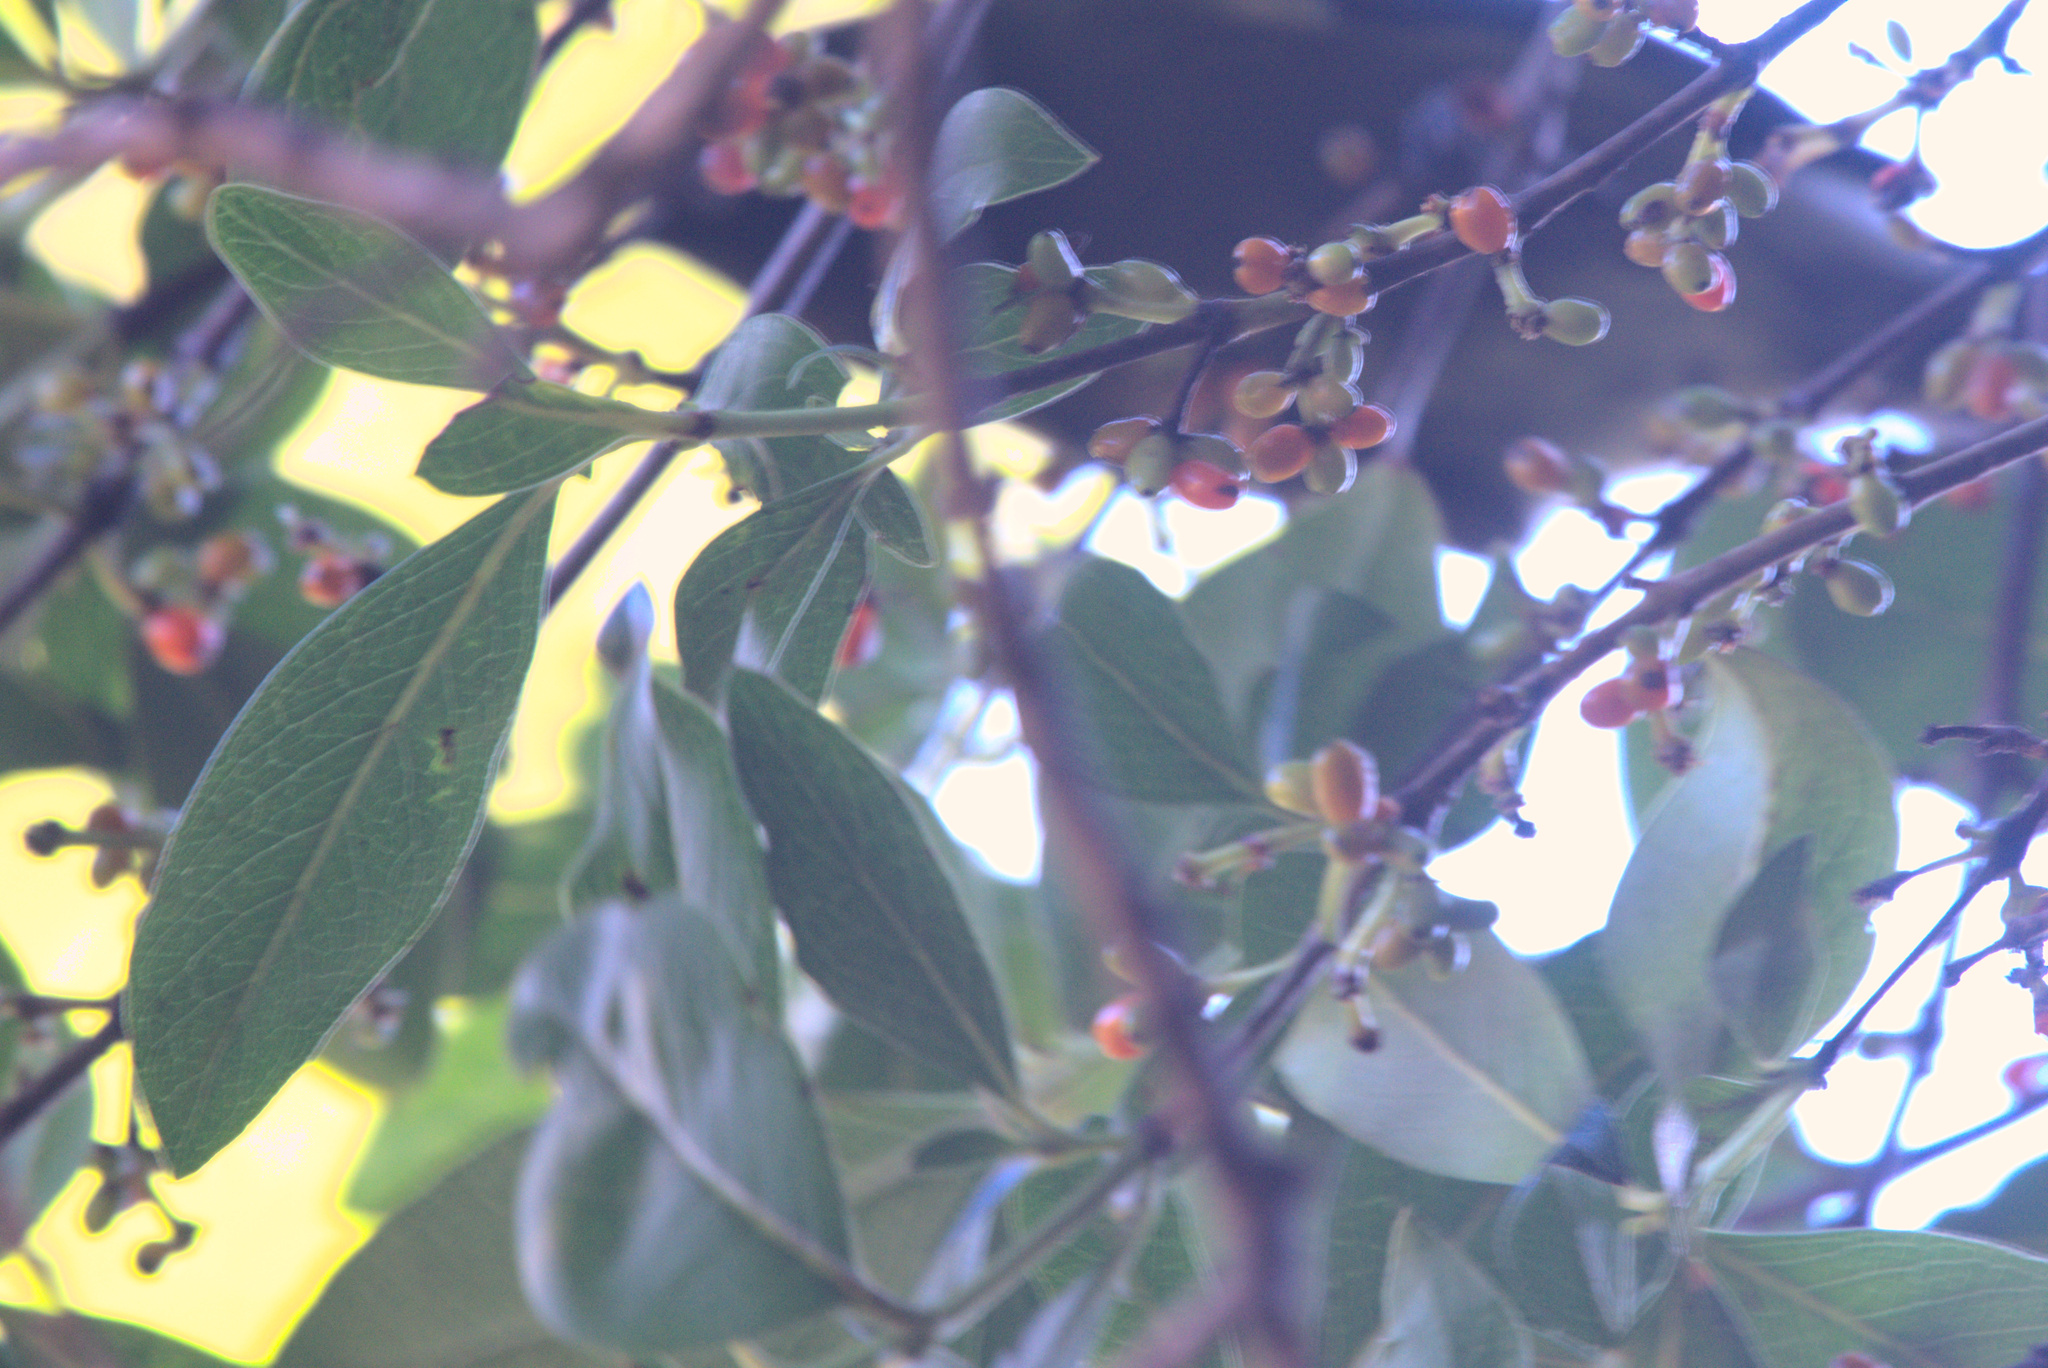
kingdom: Plantae
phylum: Tracheophyta
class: Magnoliopsida
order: Gentianales
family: Rubiaceae
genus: Coprosma
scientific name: Coprosma robusta
